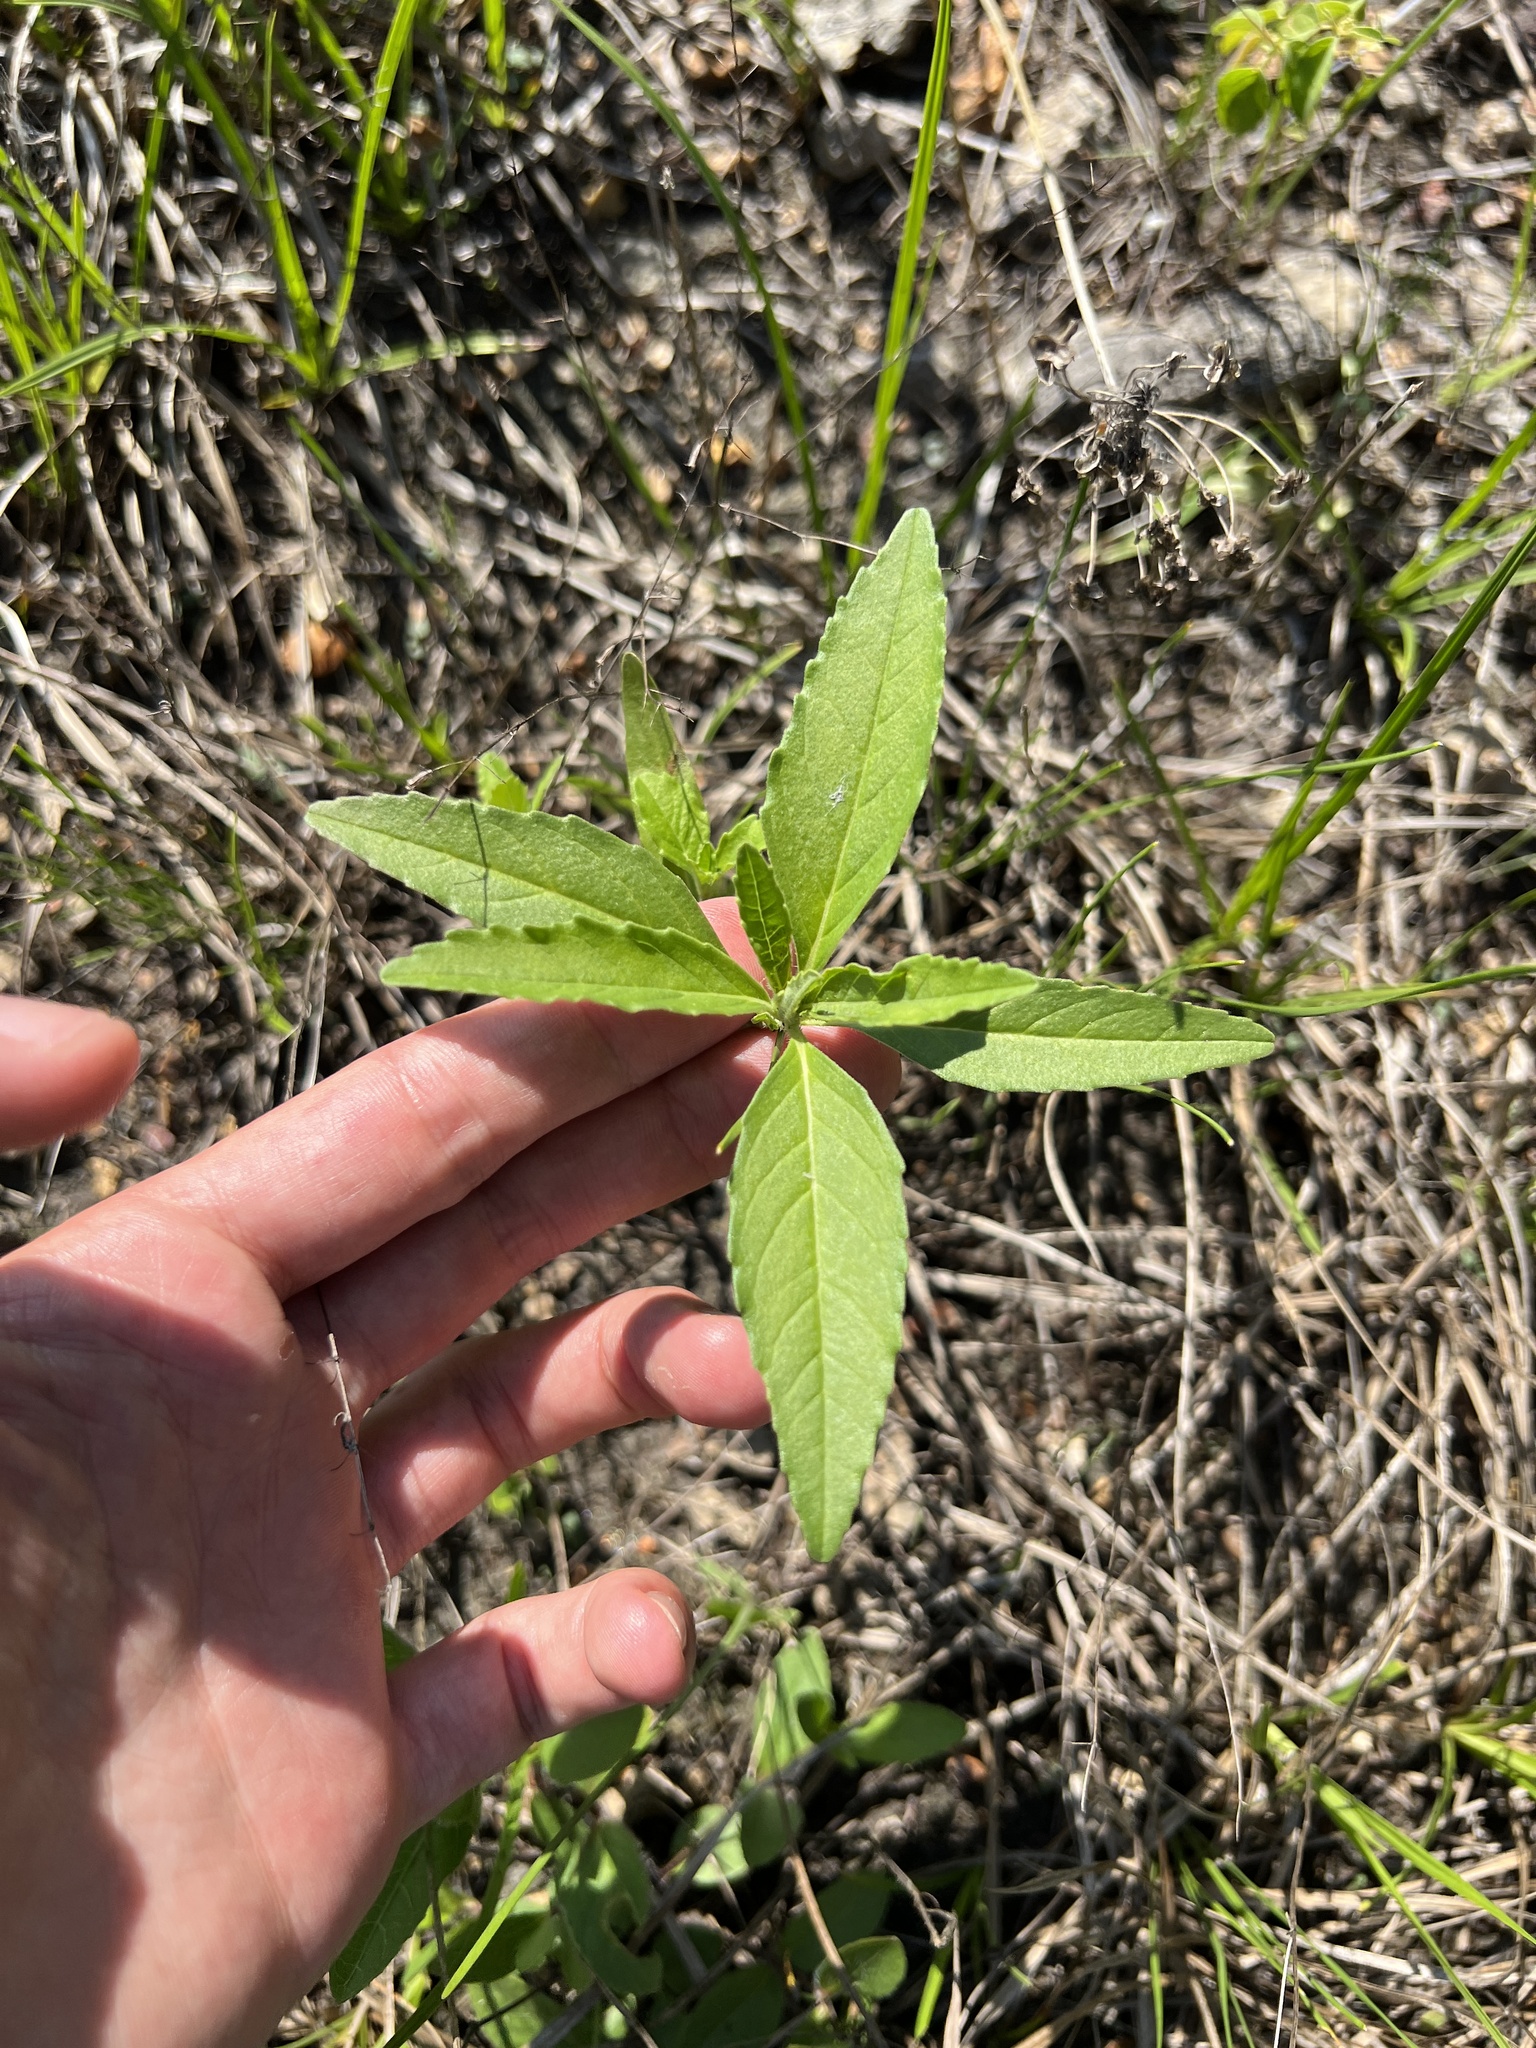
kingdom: Plantae
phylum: Tracheophyta
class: Magnoliopsida
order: Malpighiales
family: Euphorbiaceae
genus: Euphorbia
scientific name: Euphorbia davidii
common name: David's spurge
